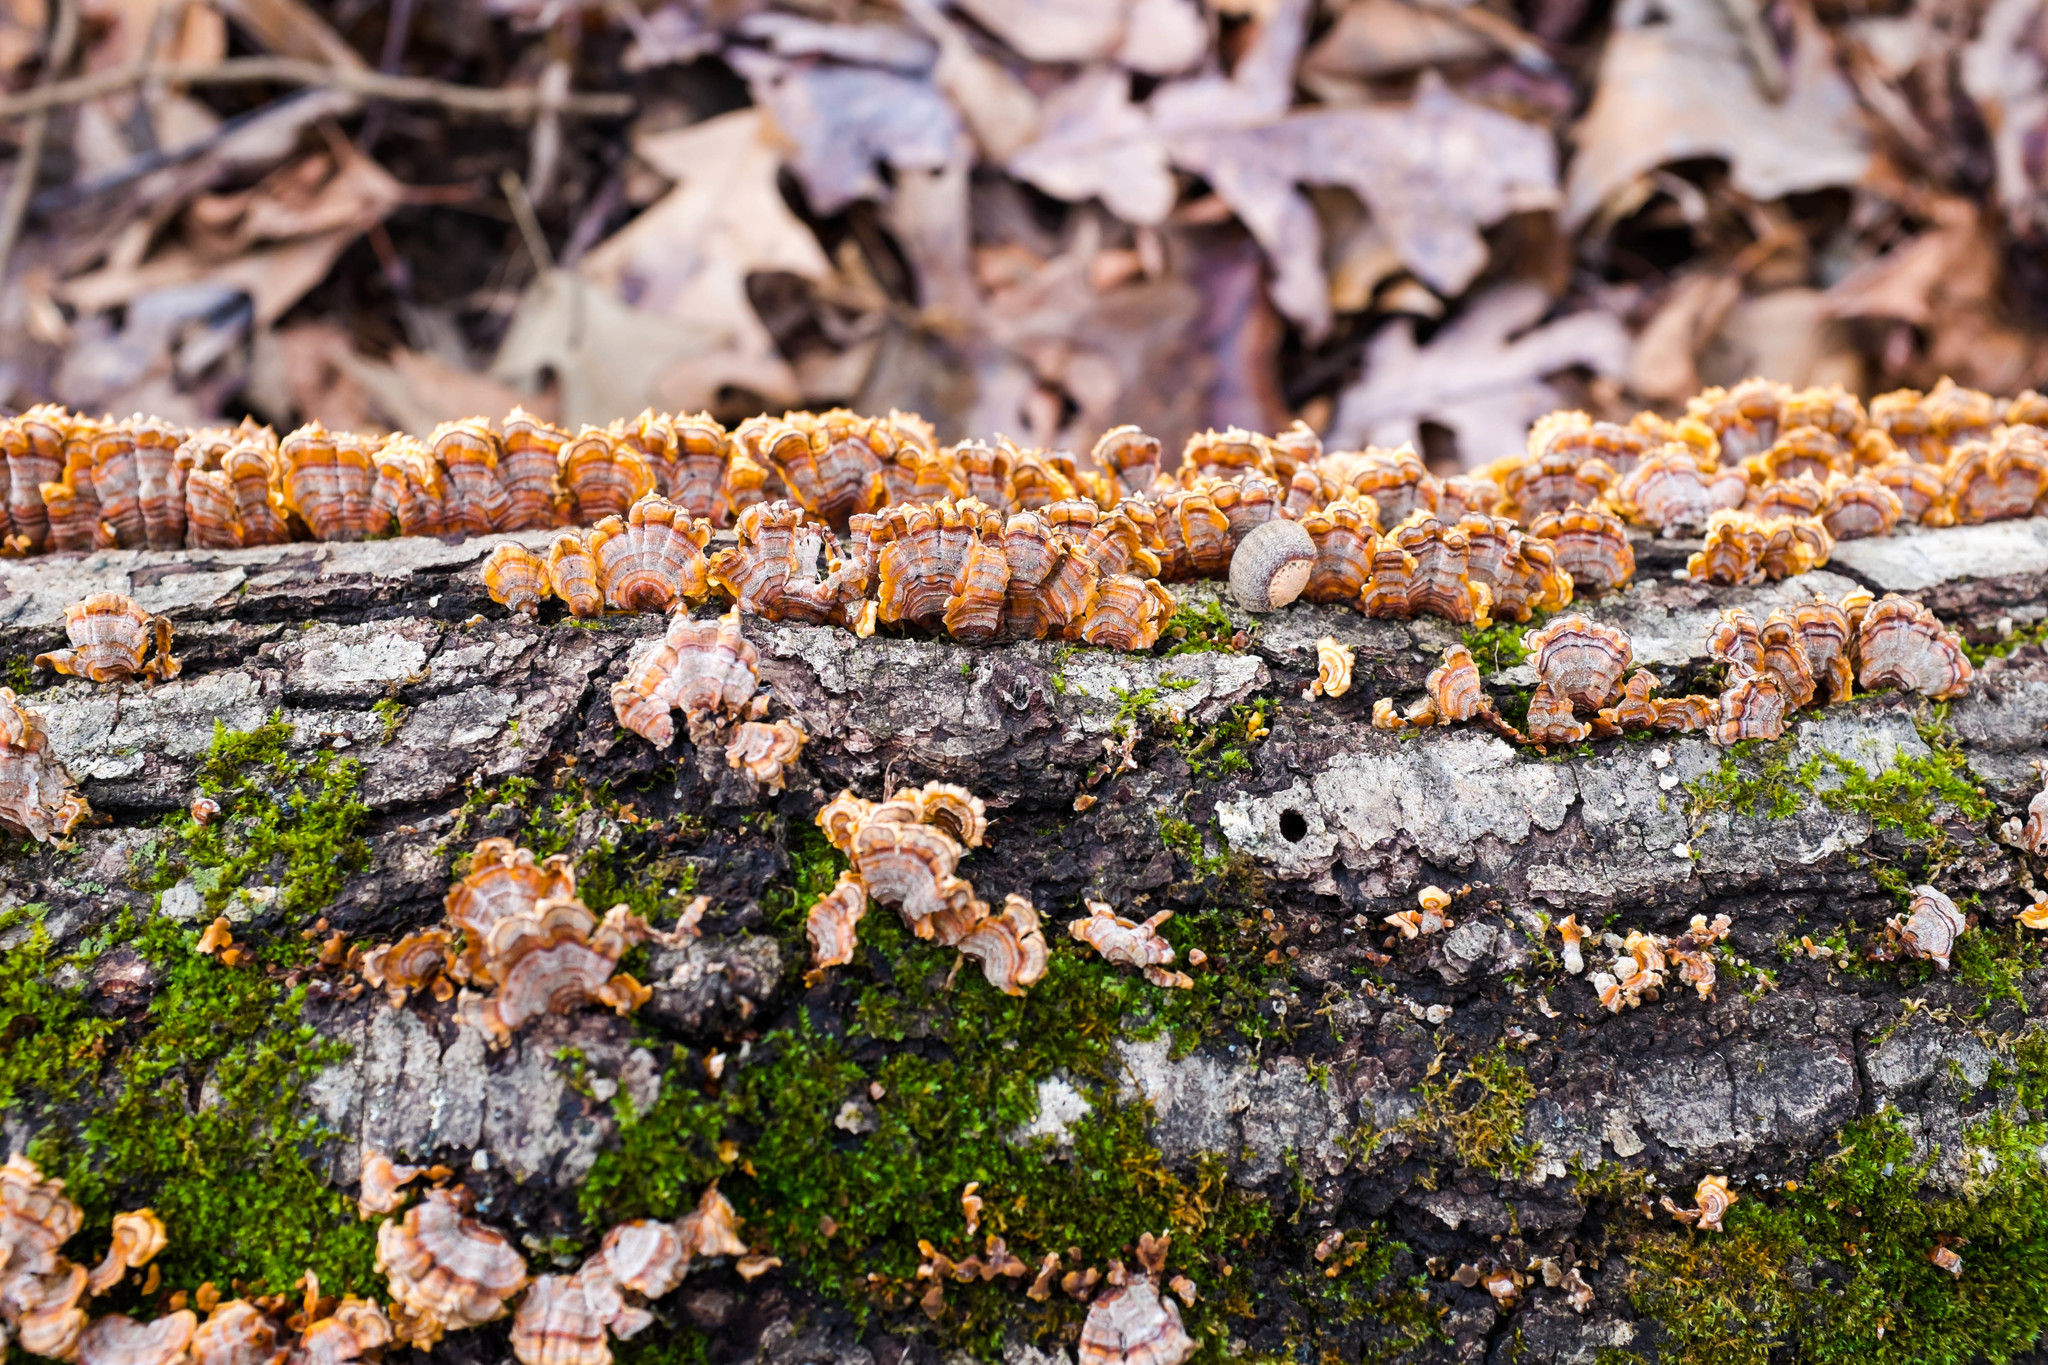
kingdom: Fungi
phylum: Basidiomycota
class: Agaricomycetes
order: Russulales
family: Stereaceae
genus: Stereum
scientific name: Stereum complicatum
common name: Crowded parchment
